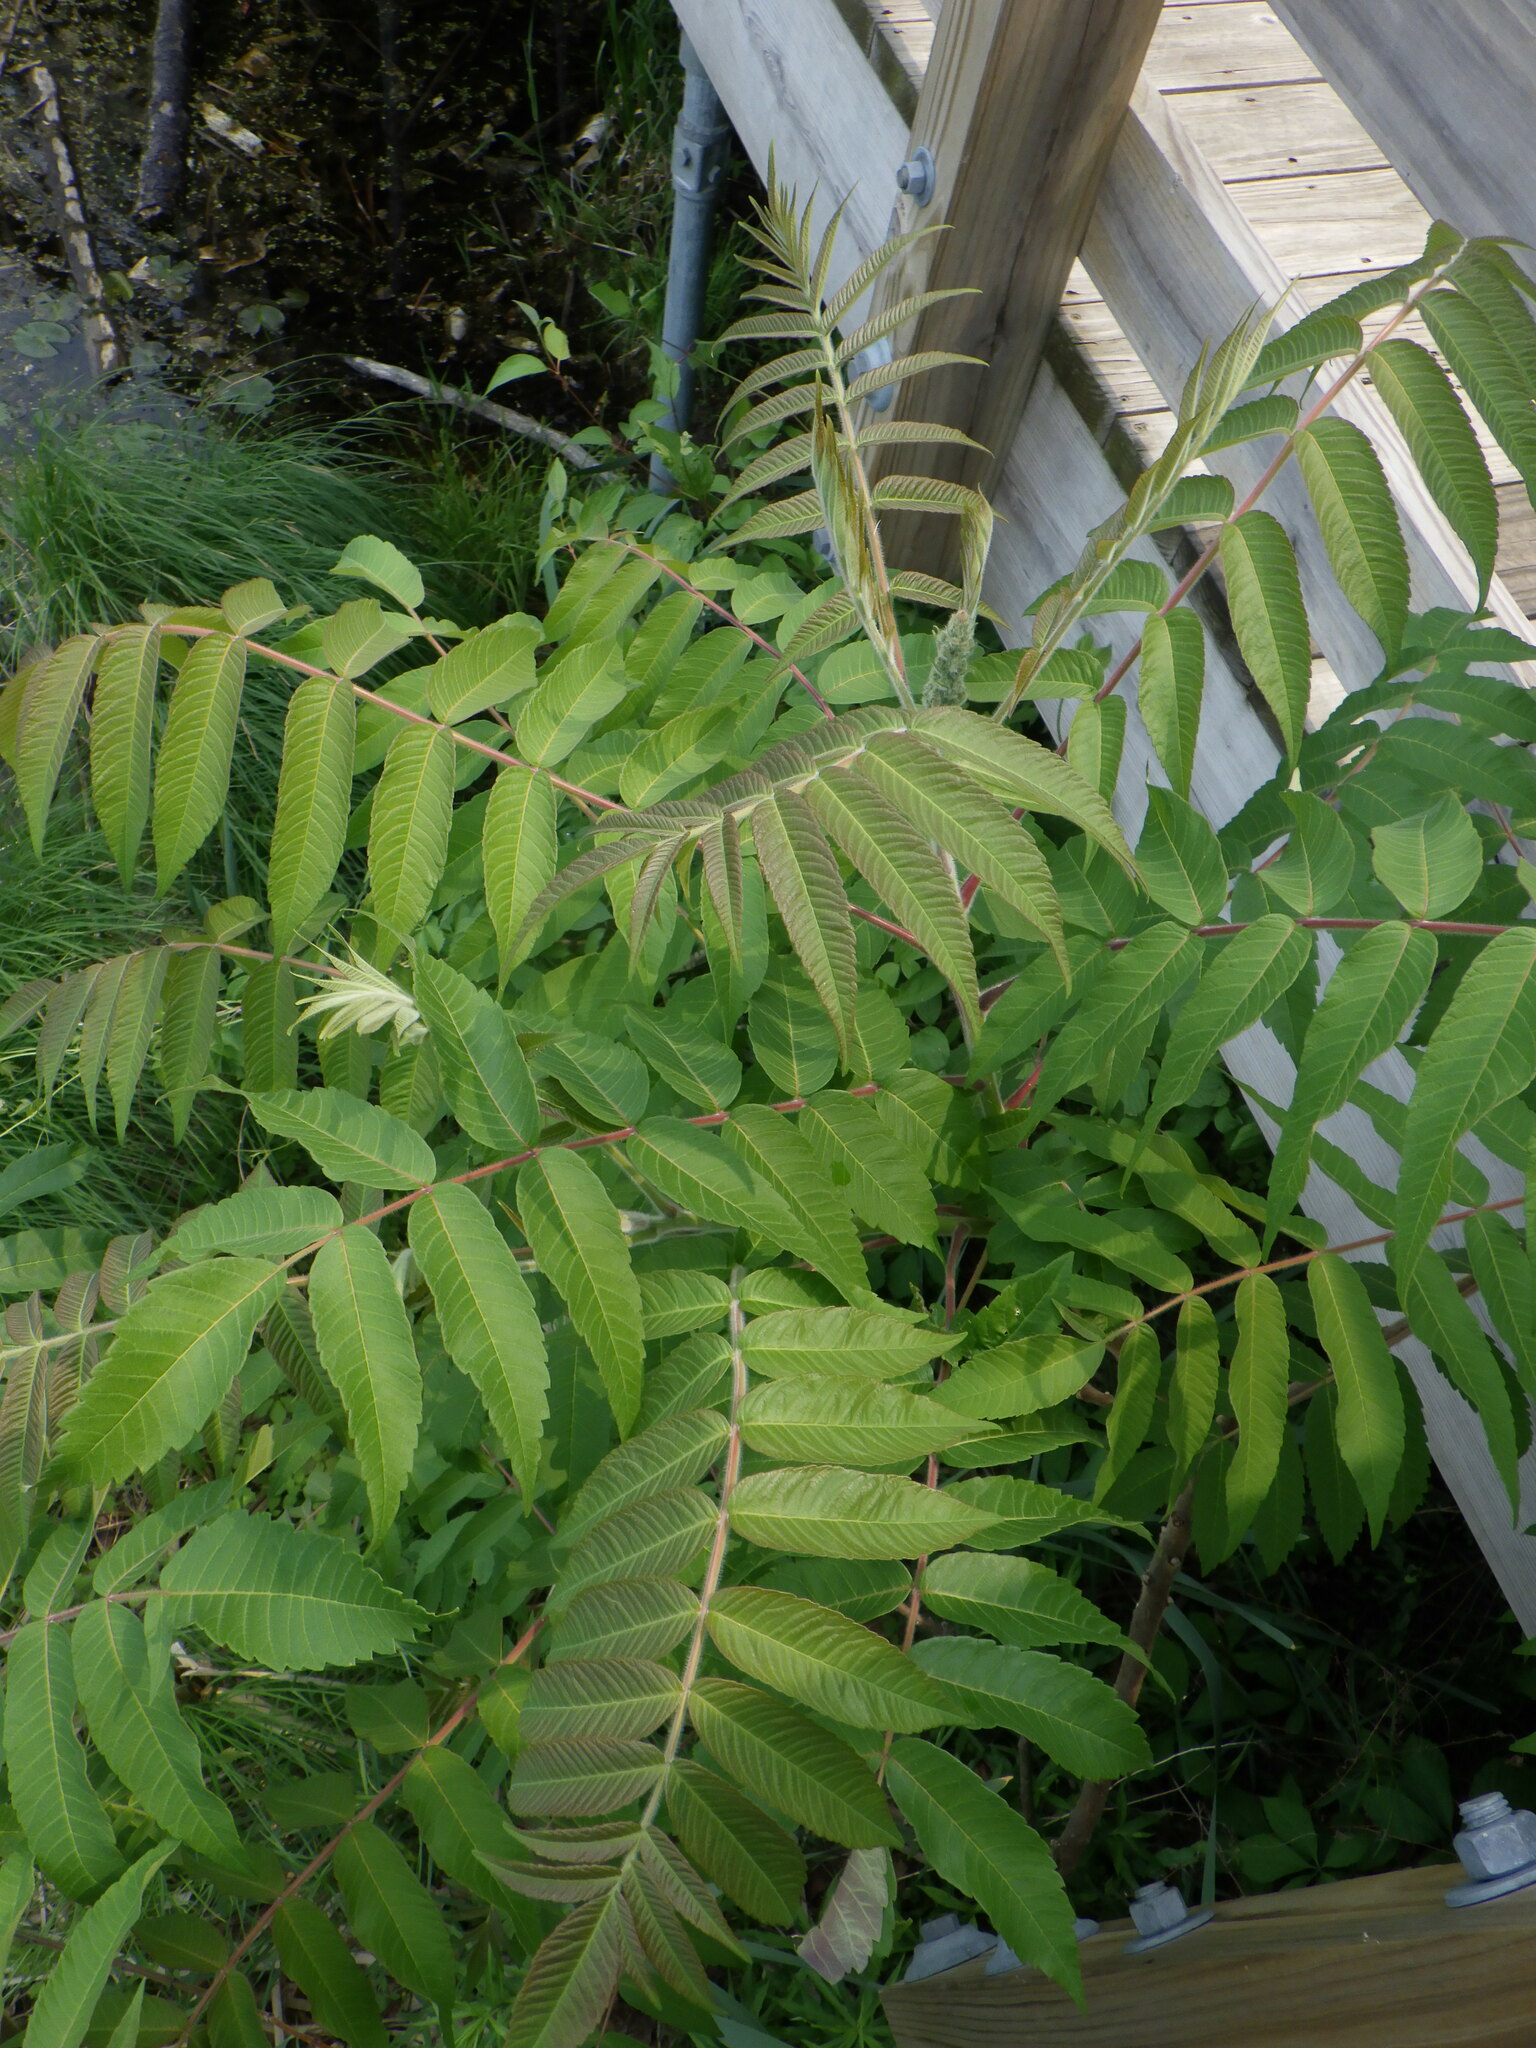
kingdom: Plantae
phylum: Tracheophyta
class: Magnoliopsida
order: Sapindales
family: Anacardiaceae
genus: Rhus
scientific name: Rhus typhina
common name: Staghorn sumac
